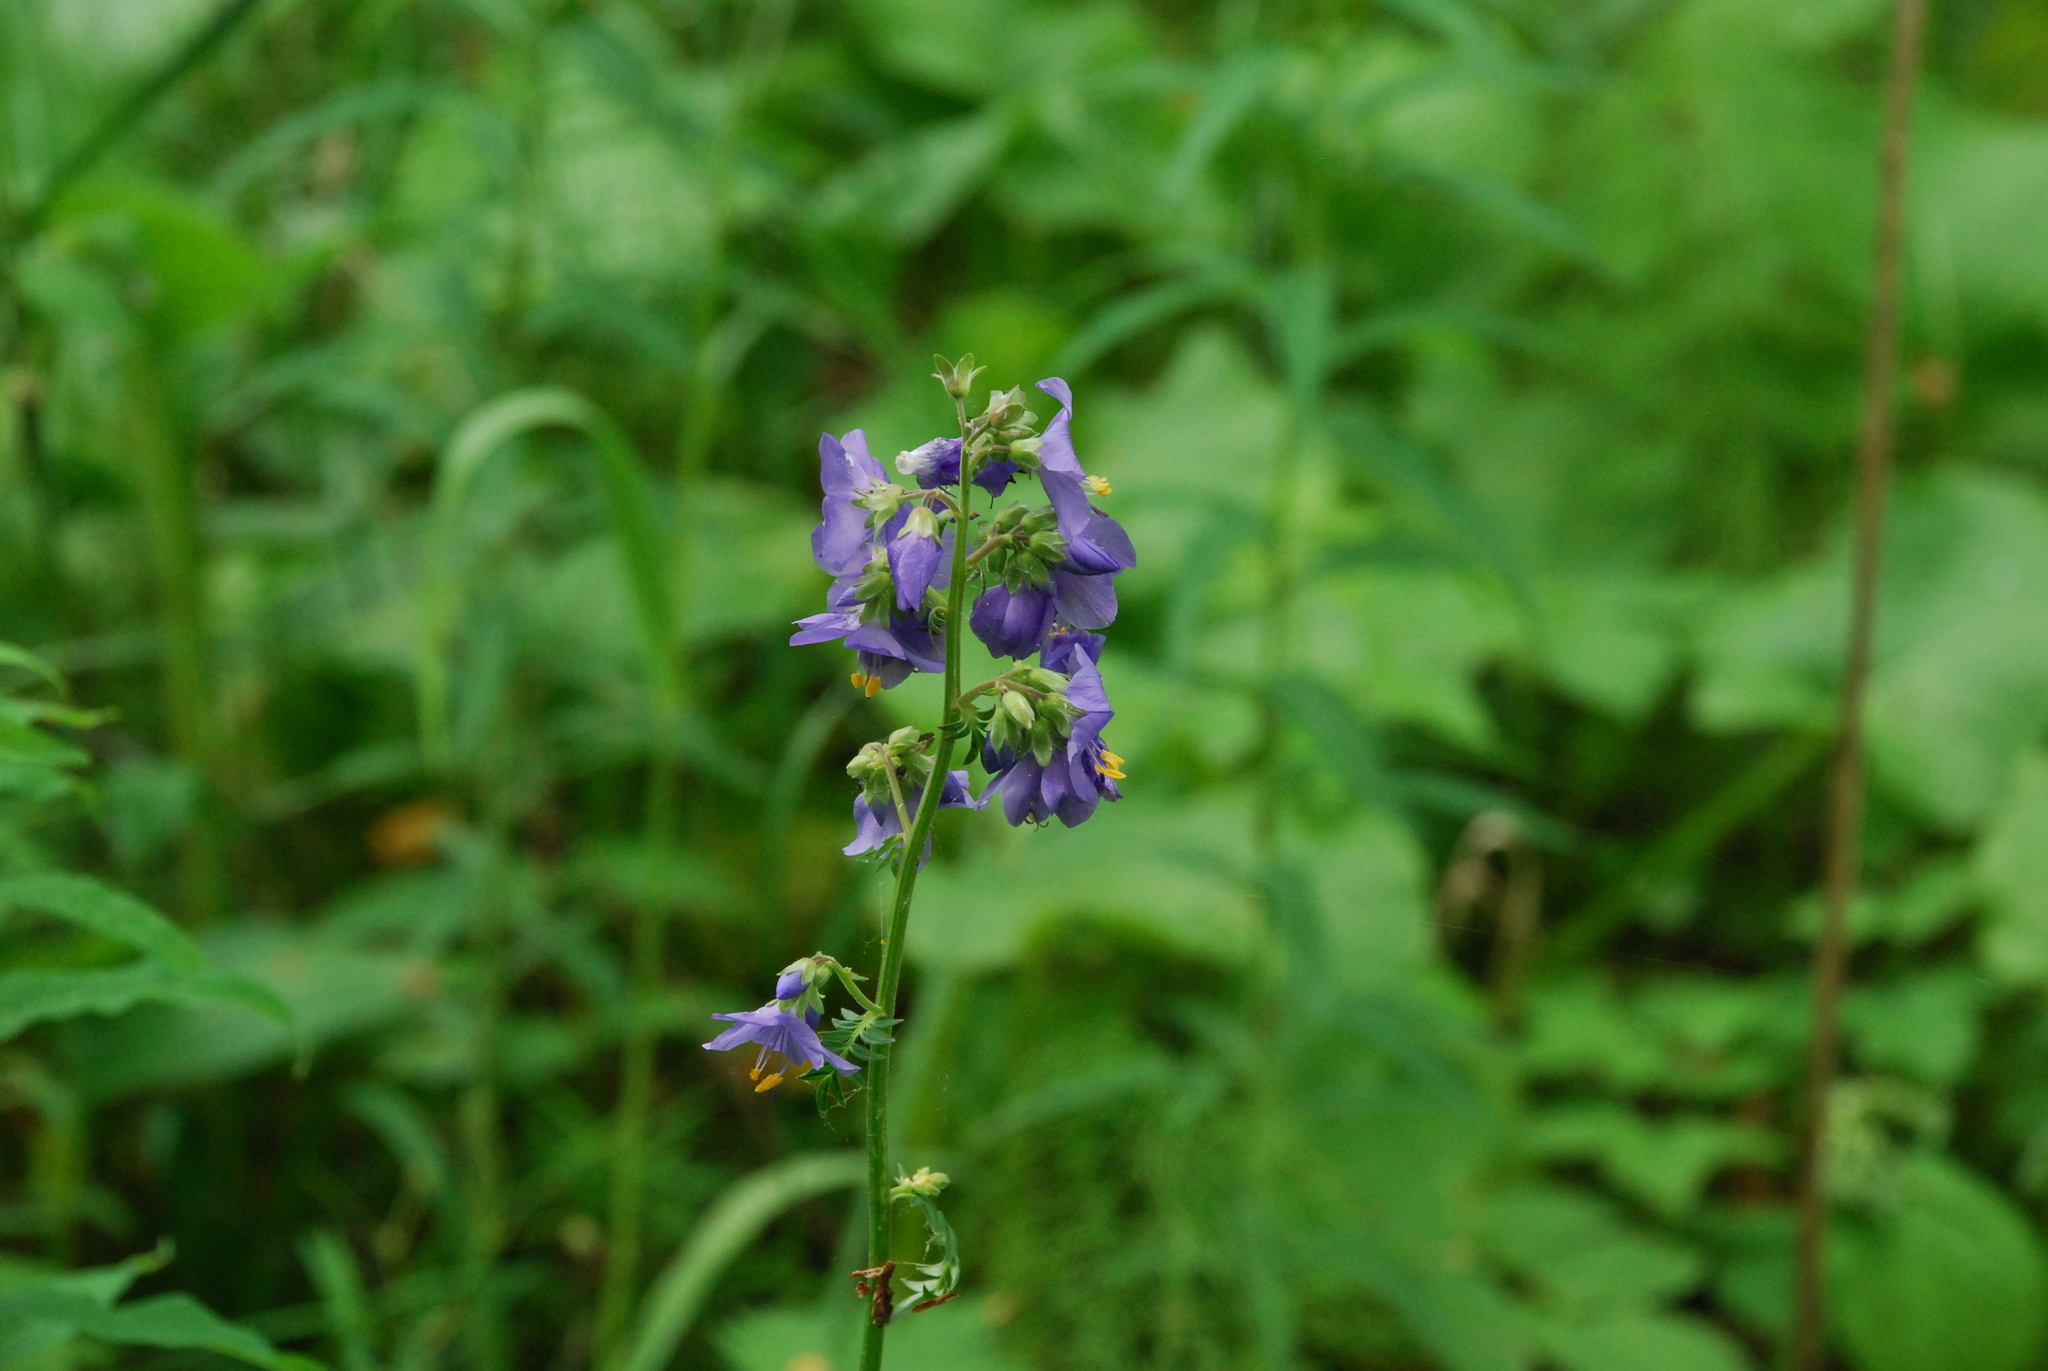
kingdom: Plantae
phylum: Tracheophyta
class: Magnoliopsida
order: Ericales
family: Polemoniaceae
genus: Polemonium
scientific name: Polemonium caeruleum
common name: Jacob's-ladder
